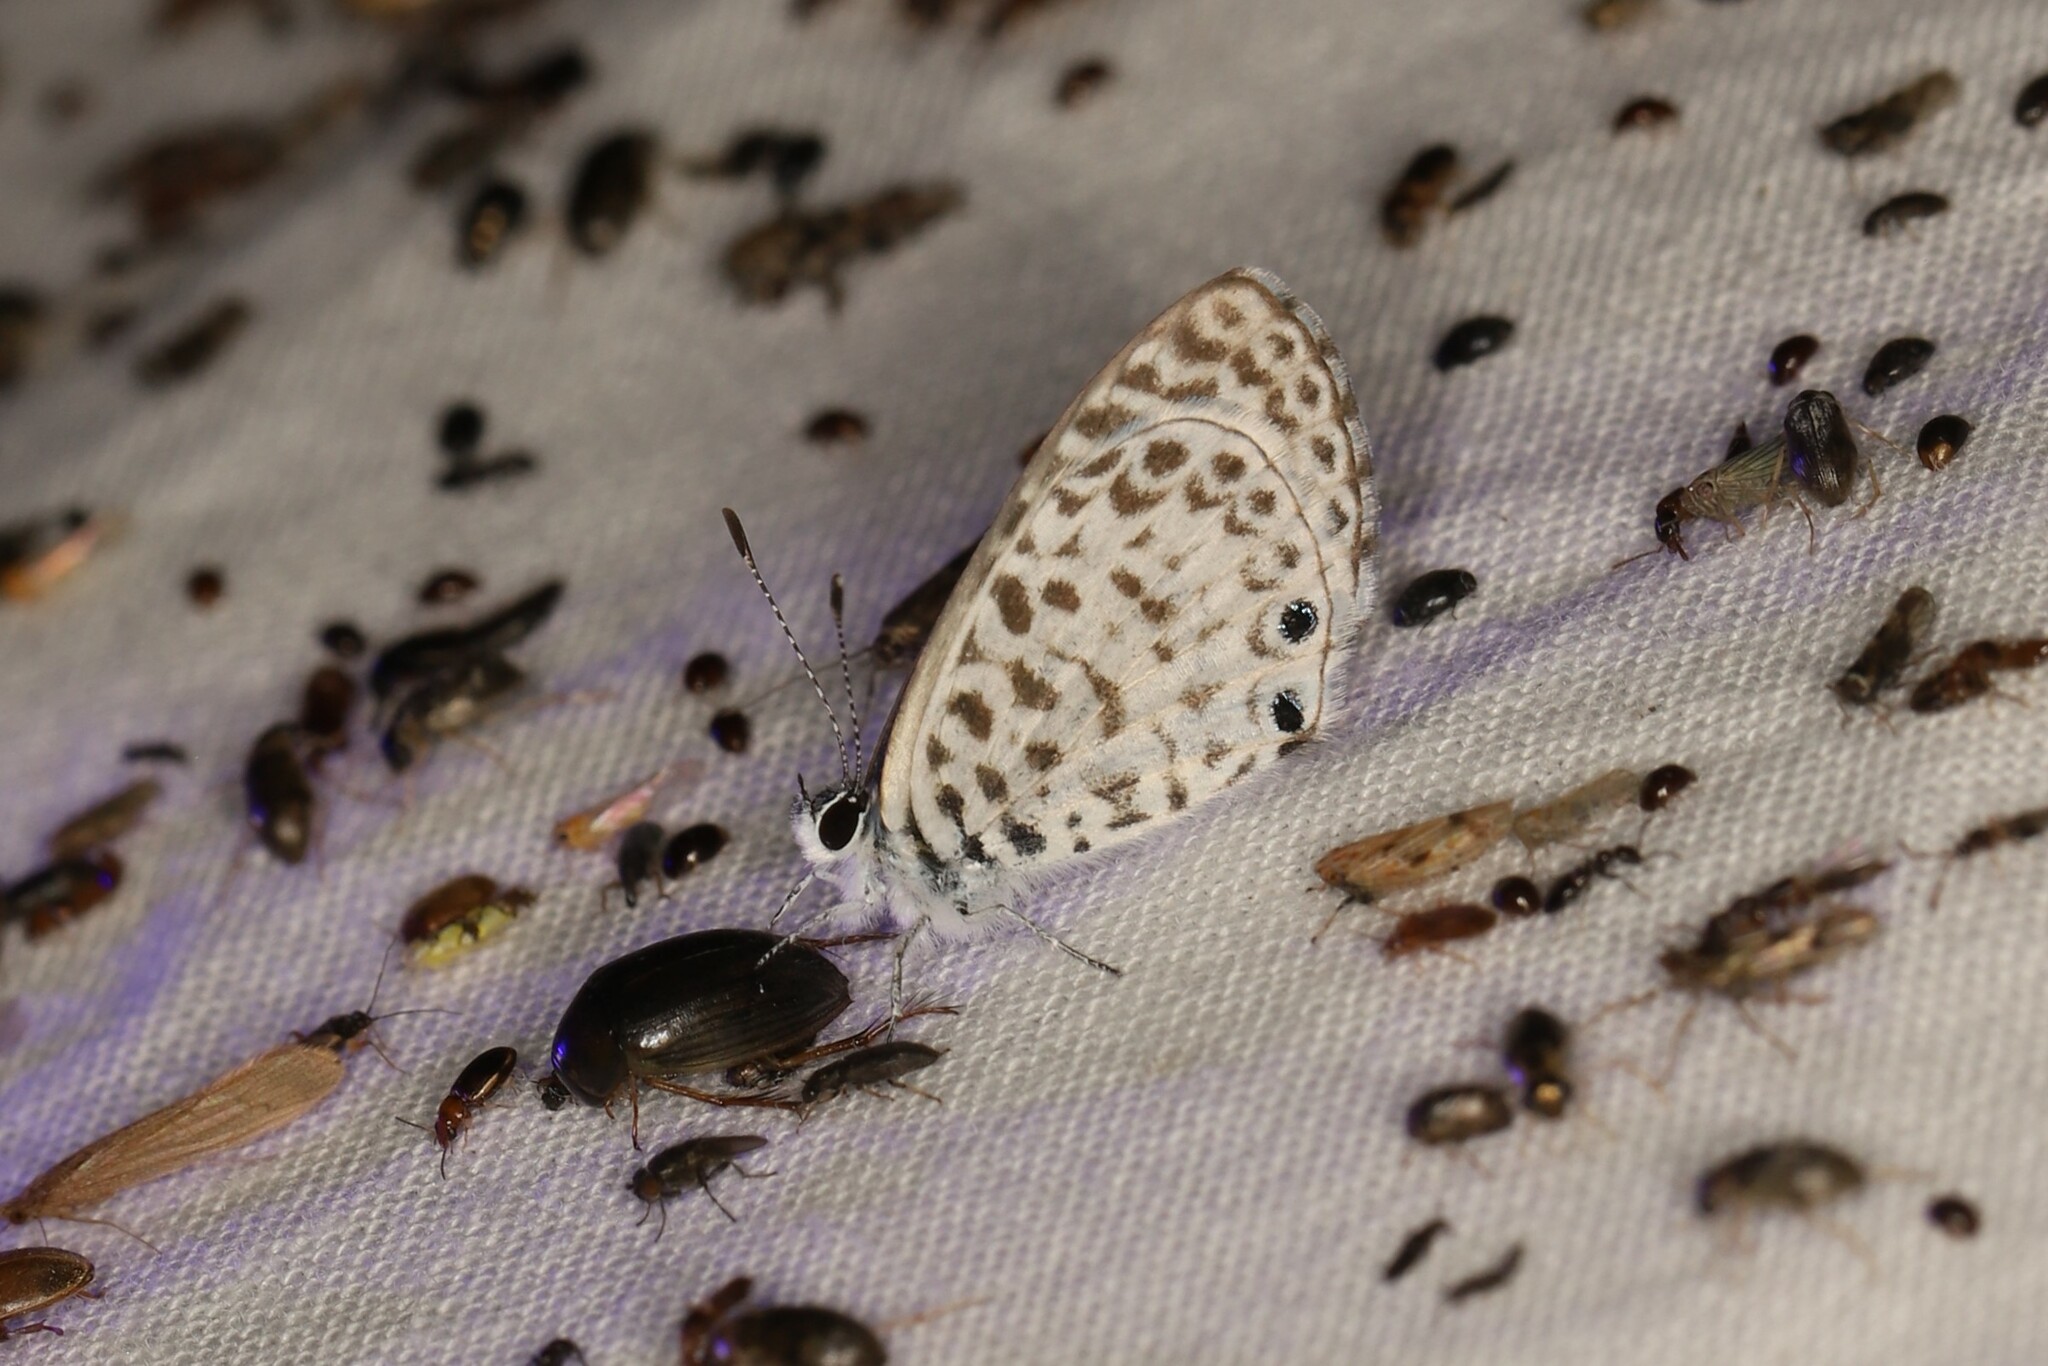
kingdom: Animalia
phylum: Arthropoda
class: Insecta
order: Lepidoptera
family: Lycaenidae
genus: Leptotes
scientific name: Leptotes cassius
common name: Cassius blue
